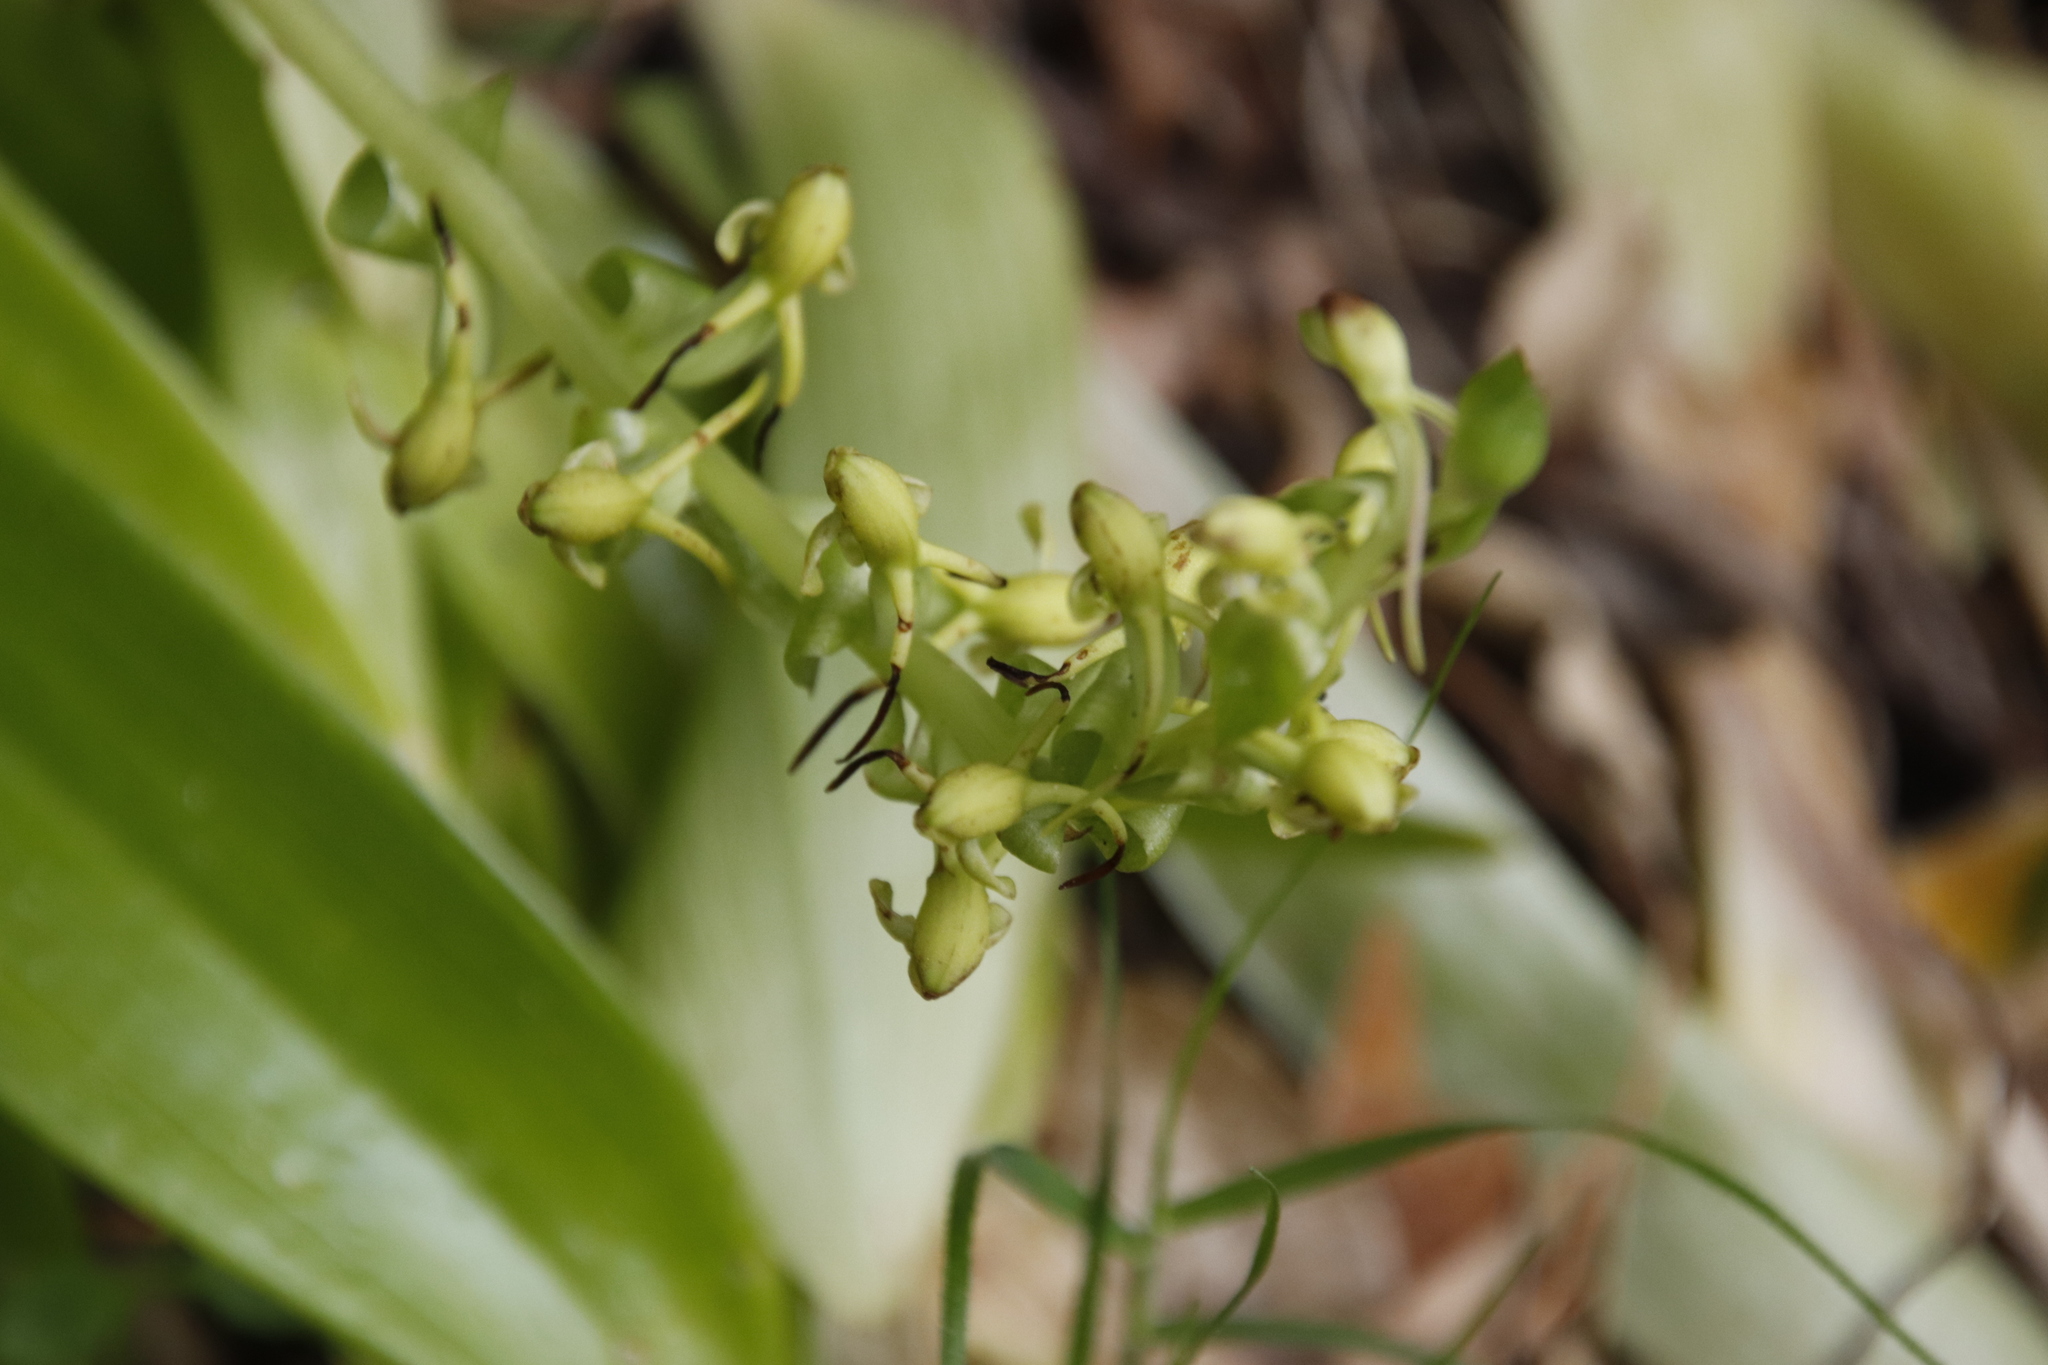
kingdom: Plantae
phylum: Tracheophyta
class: Liliopsida
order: Asparagales
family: Orchidaceae
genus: Satyrium
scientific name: Satyrium odorum
